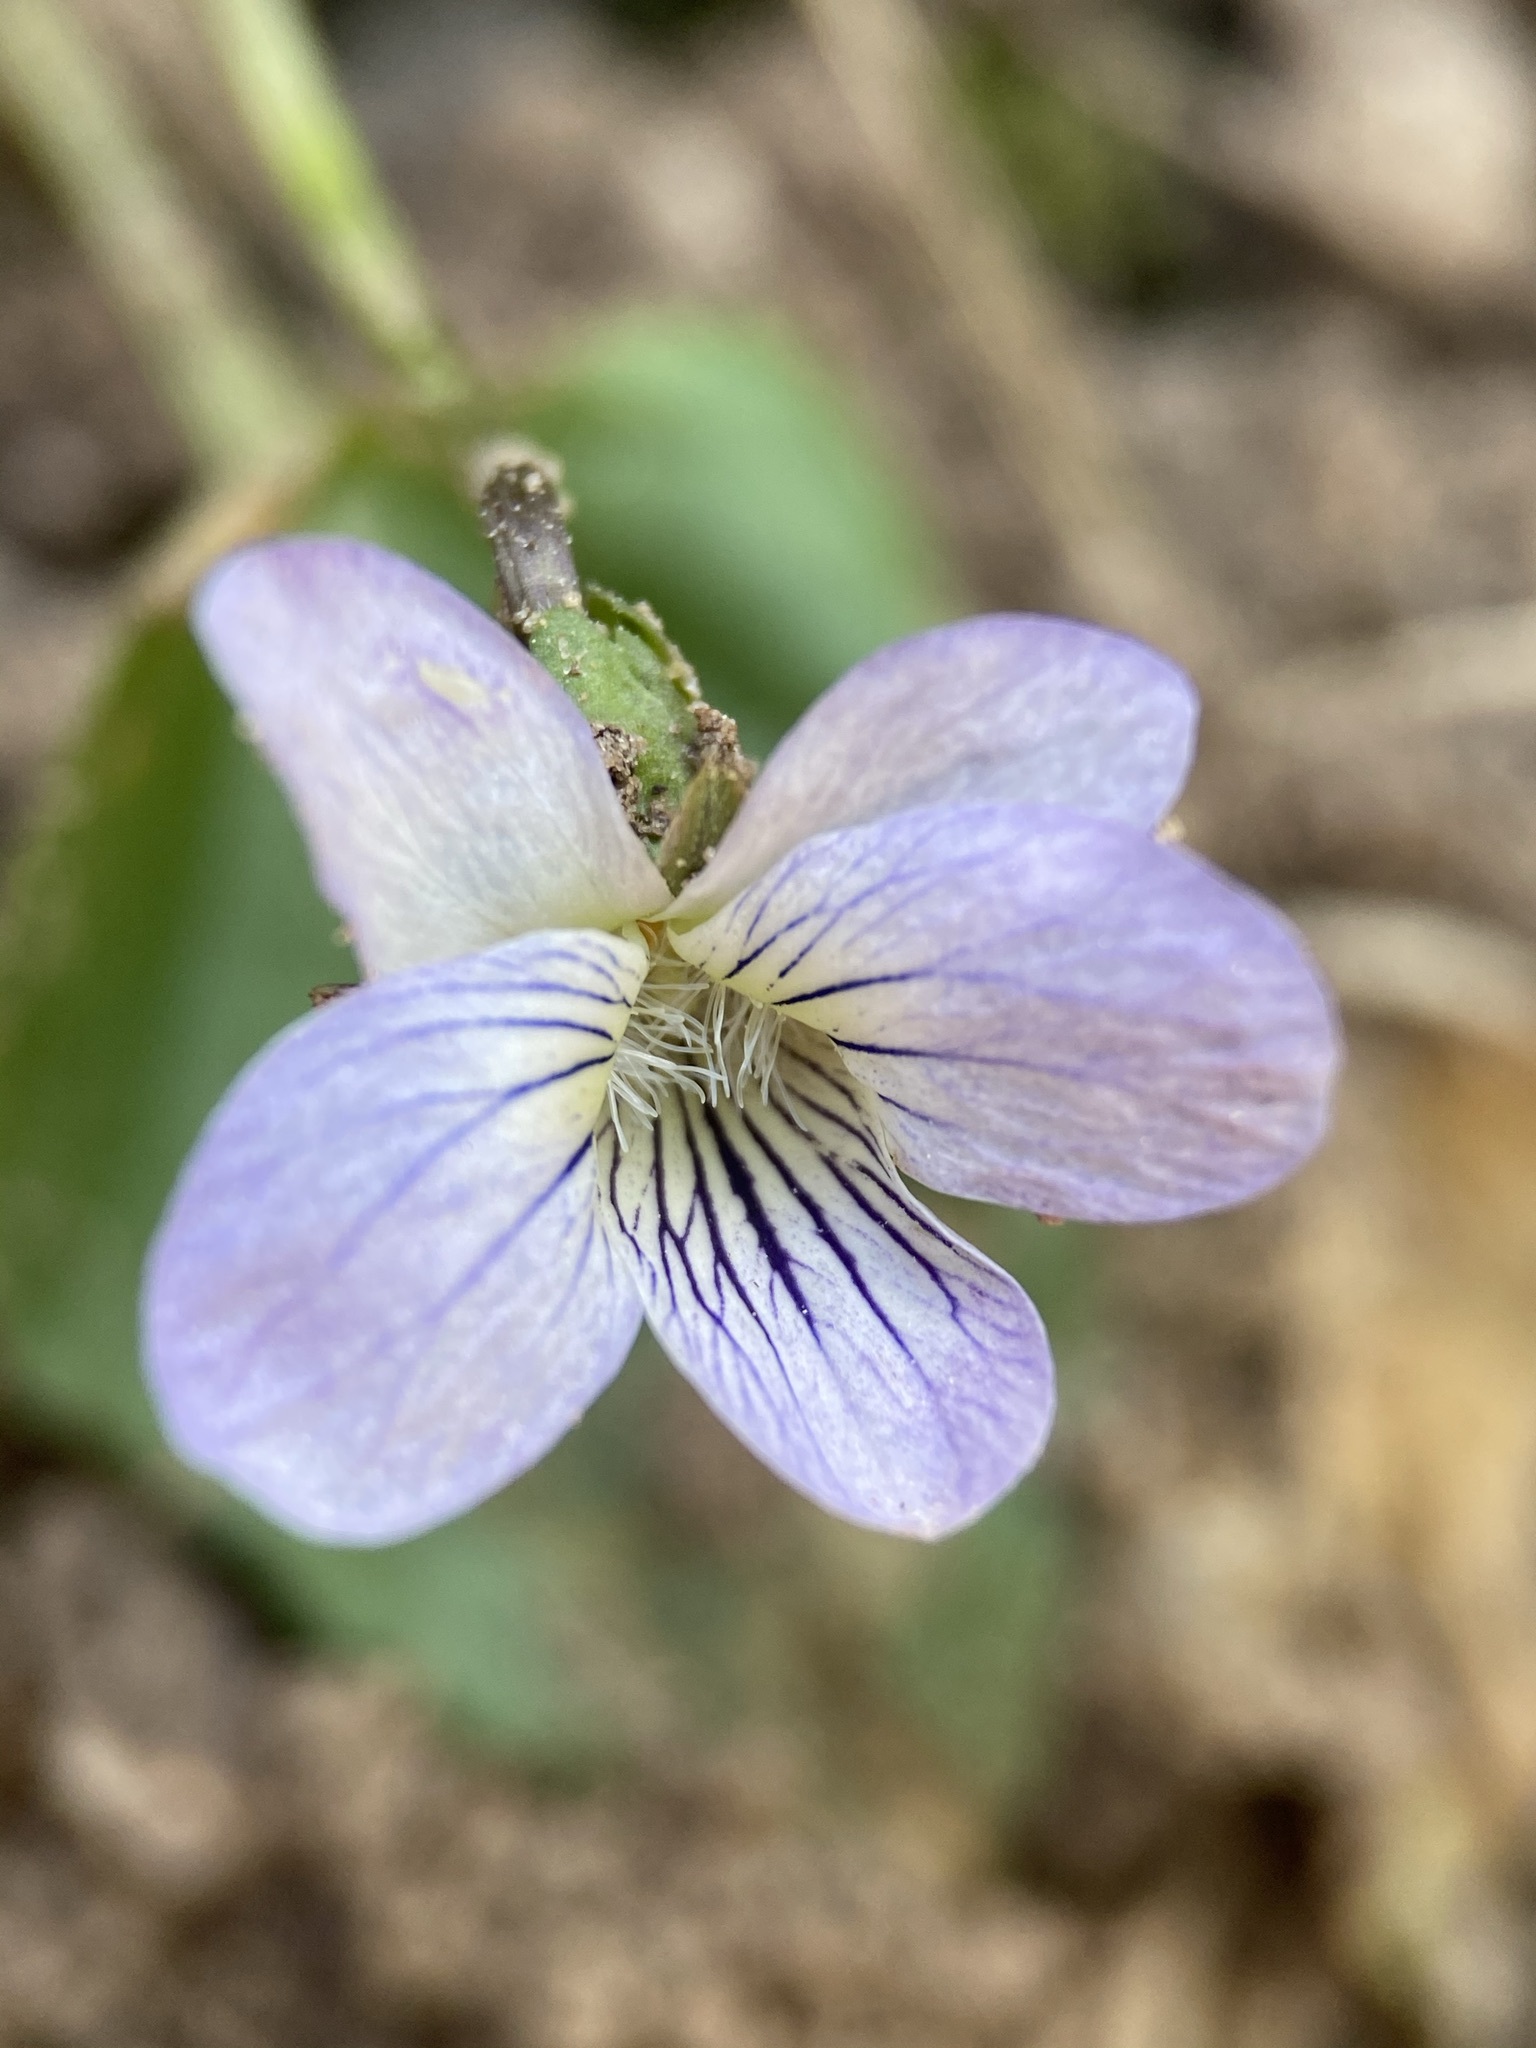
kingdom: Plantae
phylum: Tracheophyta
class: Magnoliopsida
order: Malpighiales
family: Violaceae
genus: Viola
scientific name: Viola missouriensis
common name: Missouri violet
